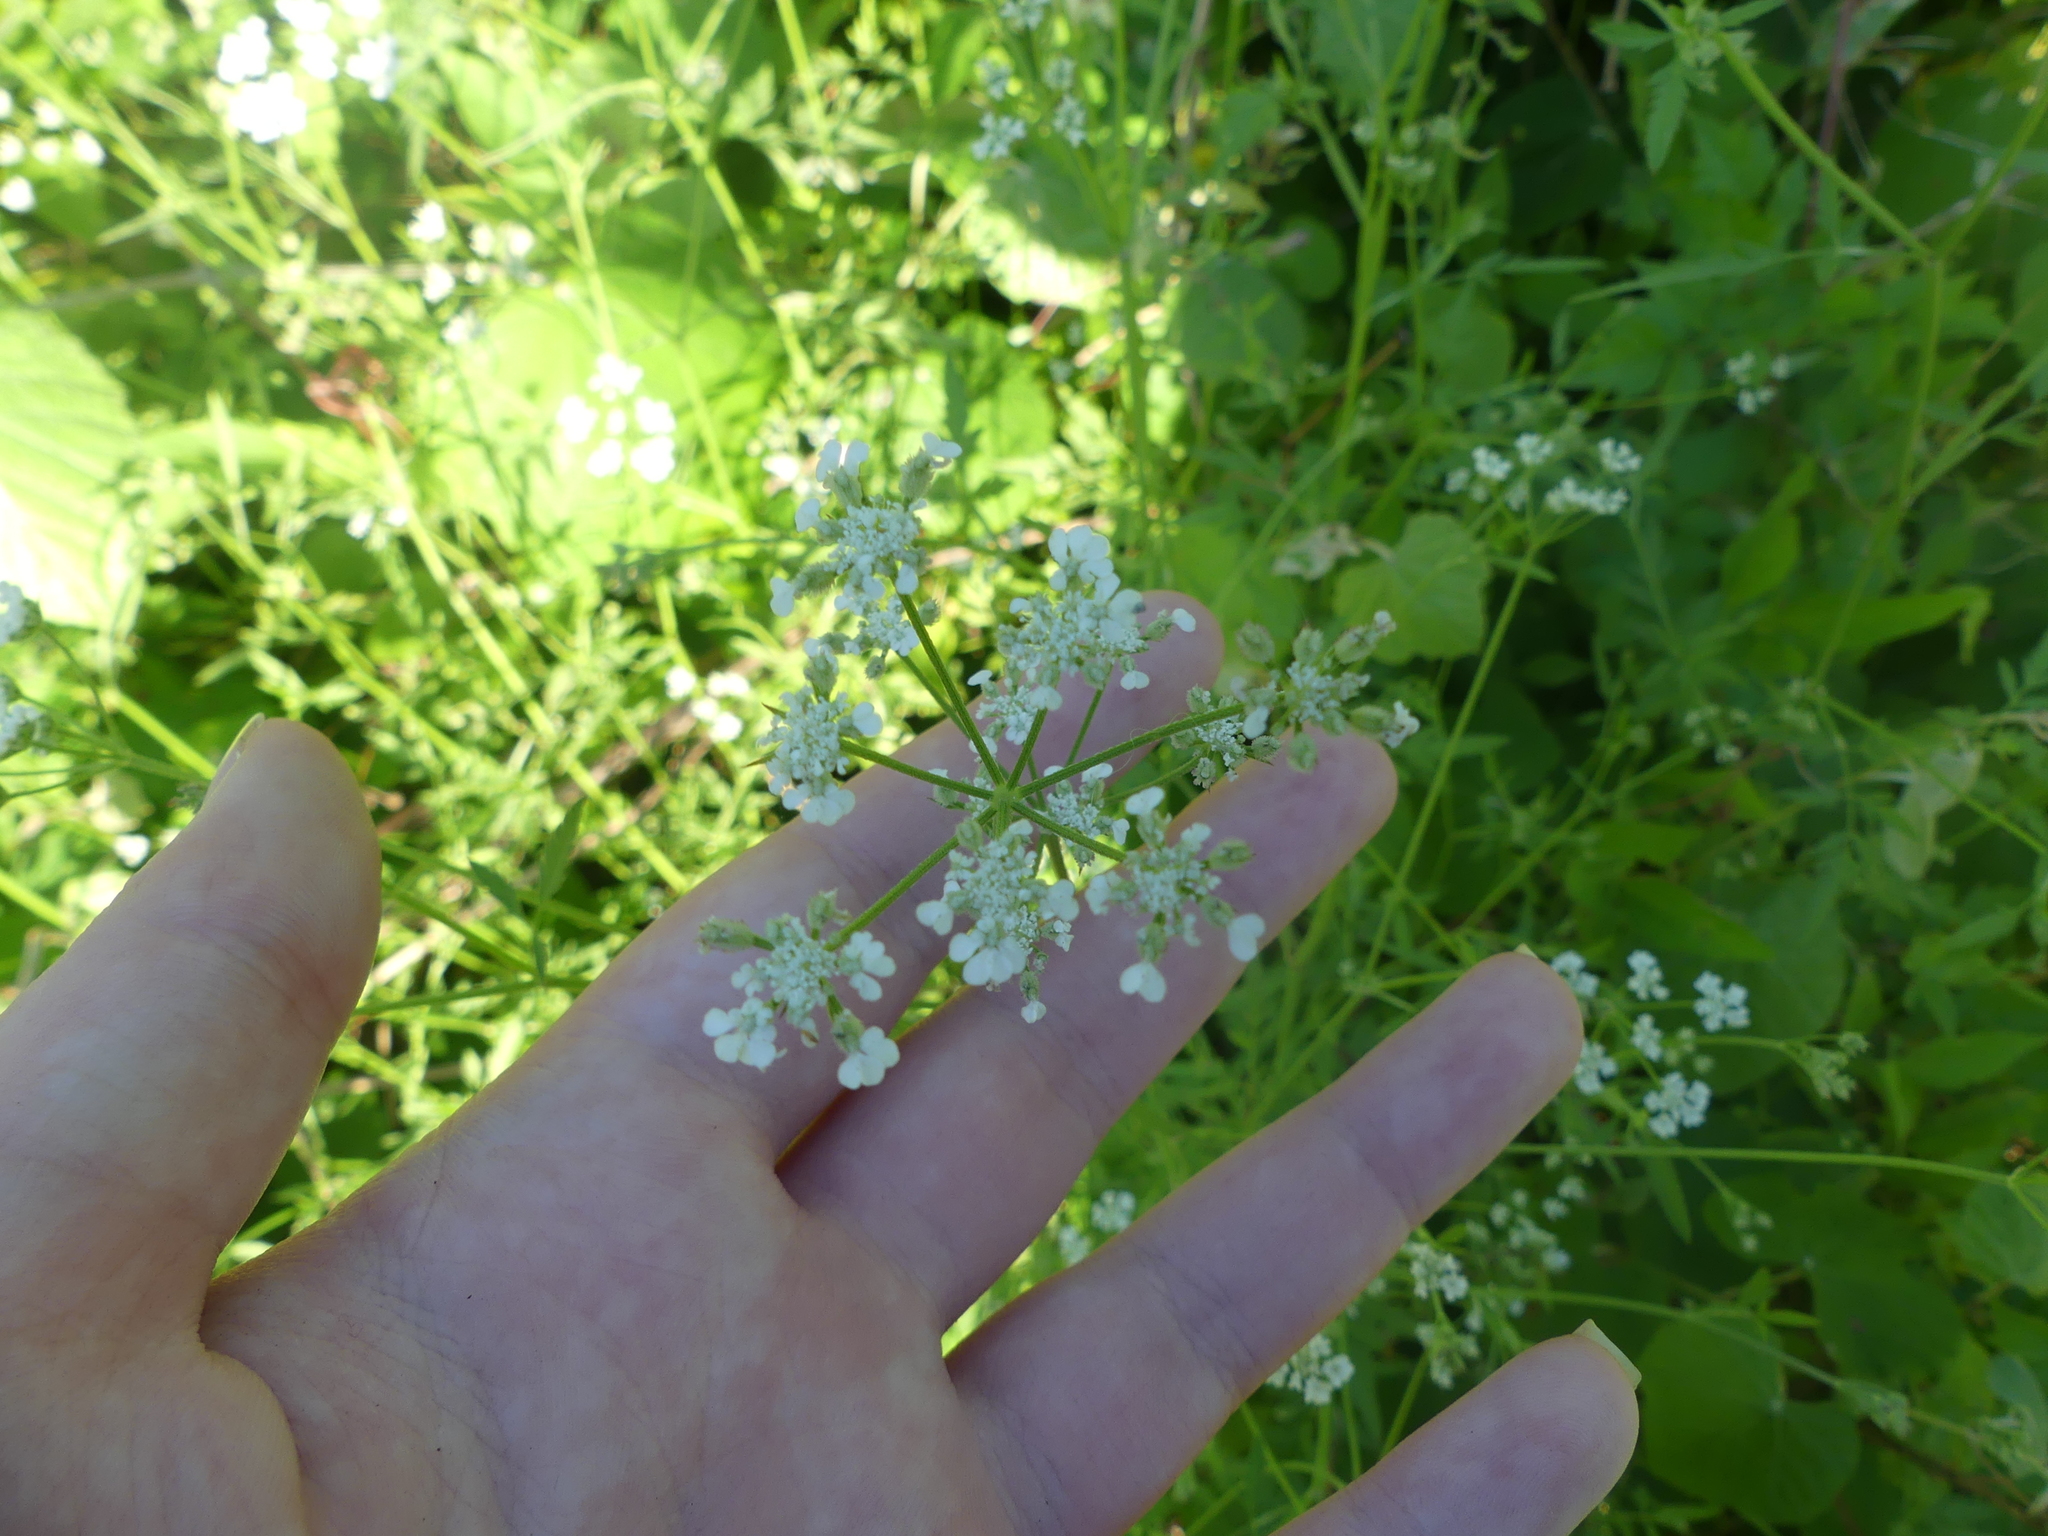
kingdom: Plantae
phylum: Tracheophyta
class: Magnoliopsida
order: Apiales
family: Apiaceae
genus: Torilis
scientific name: Torilis arvensis
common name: Spreading hedge-parsley
